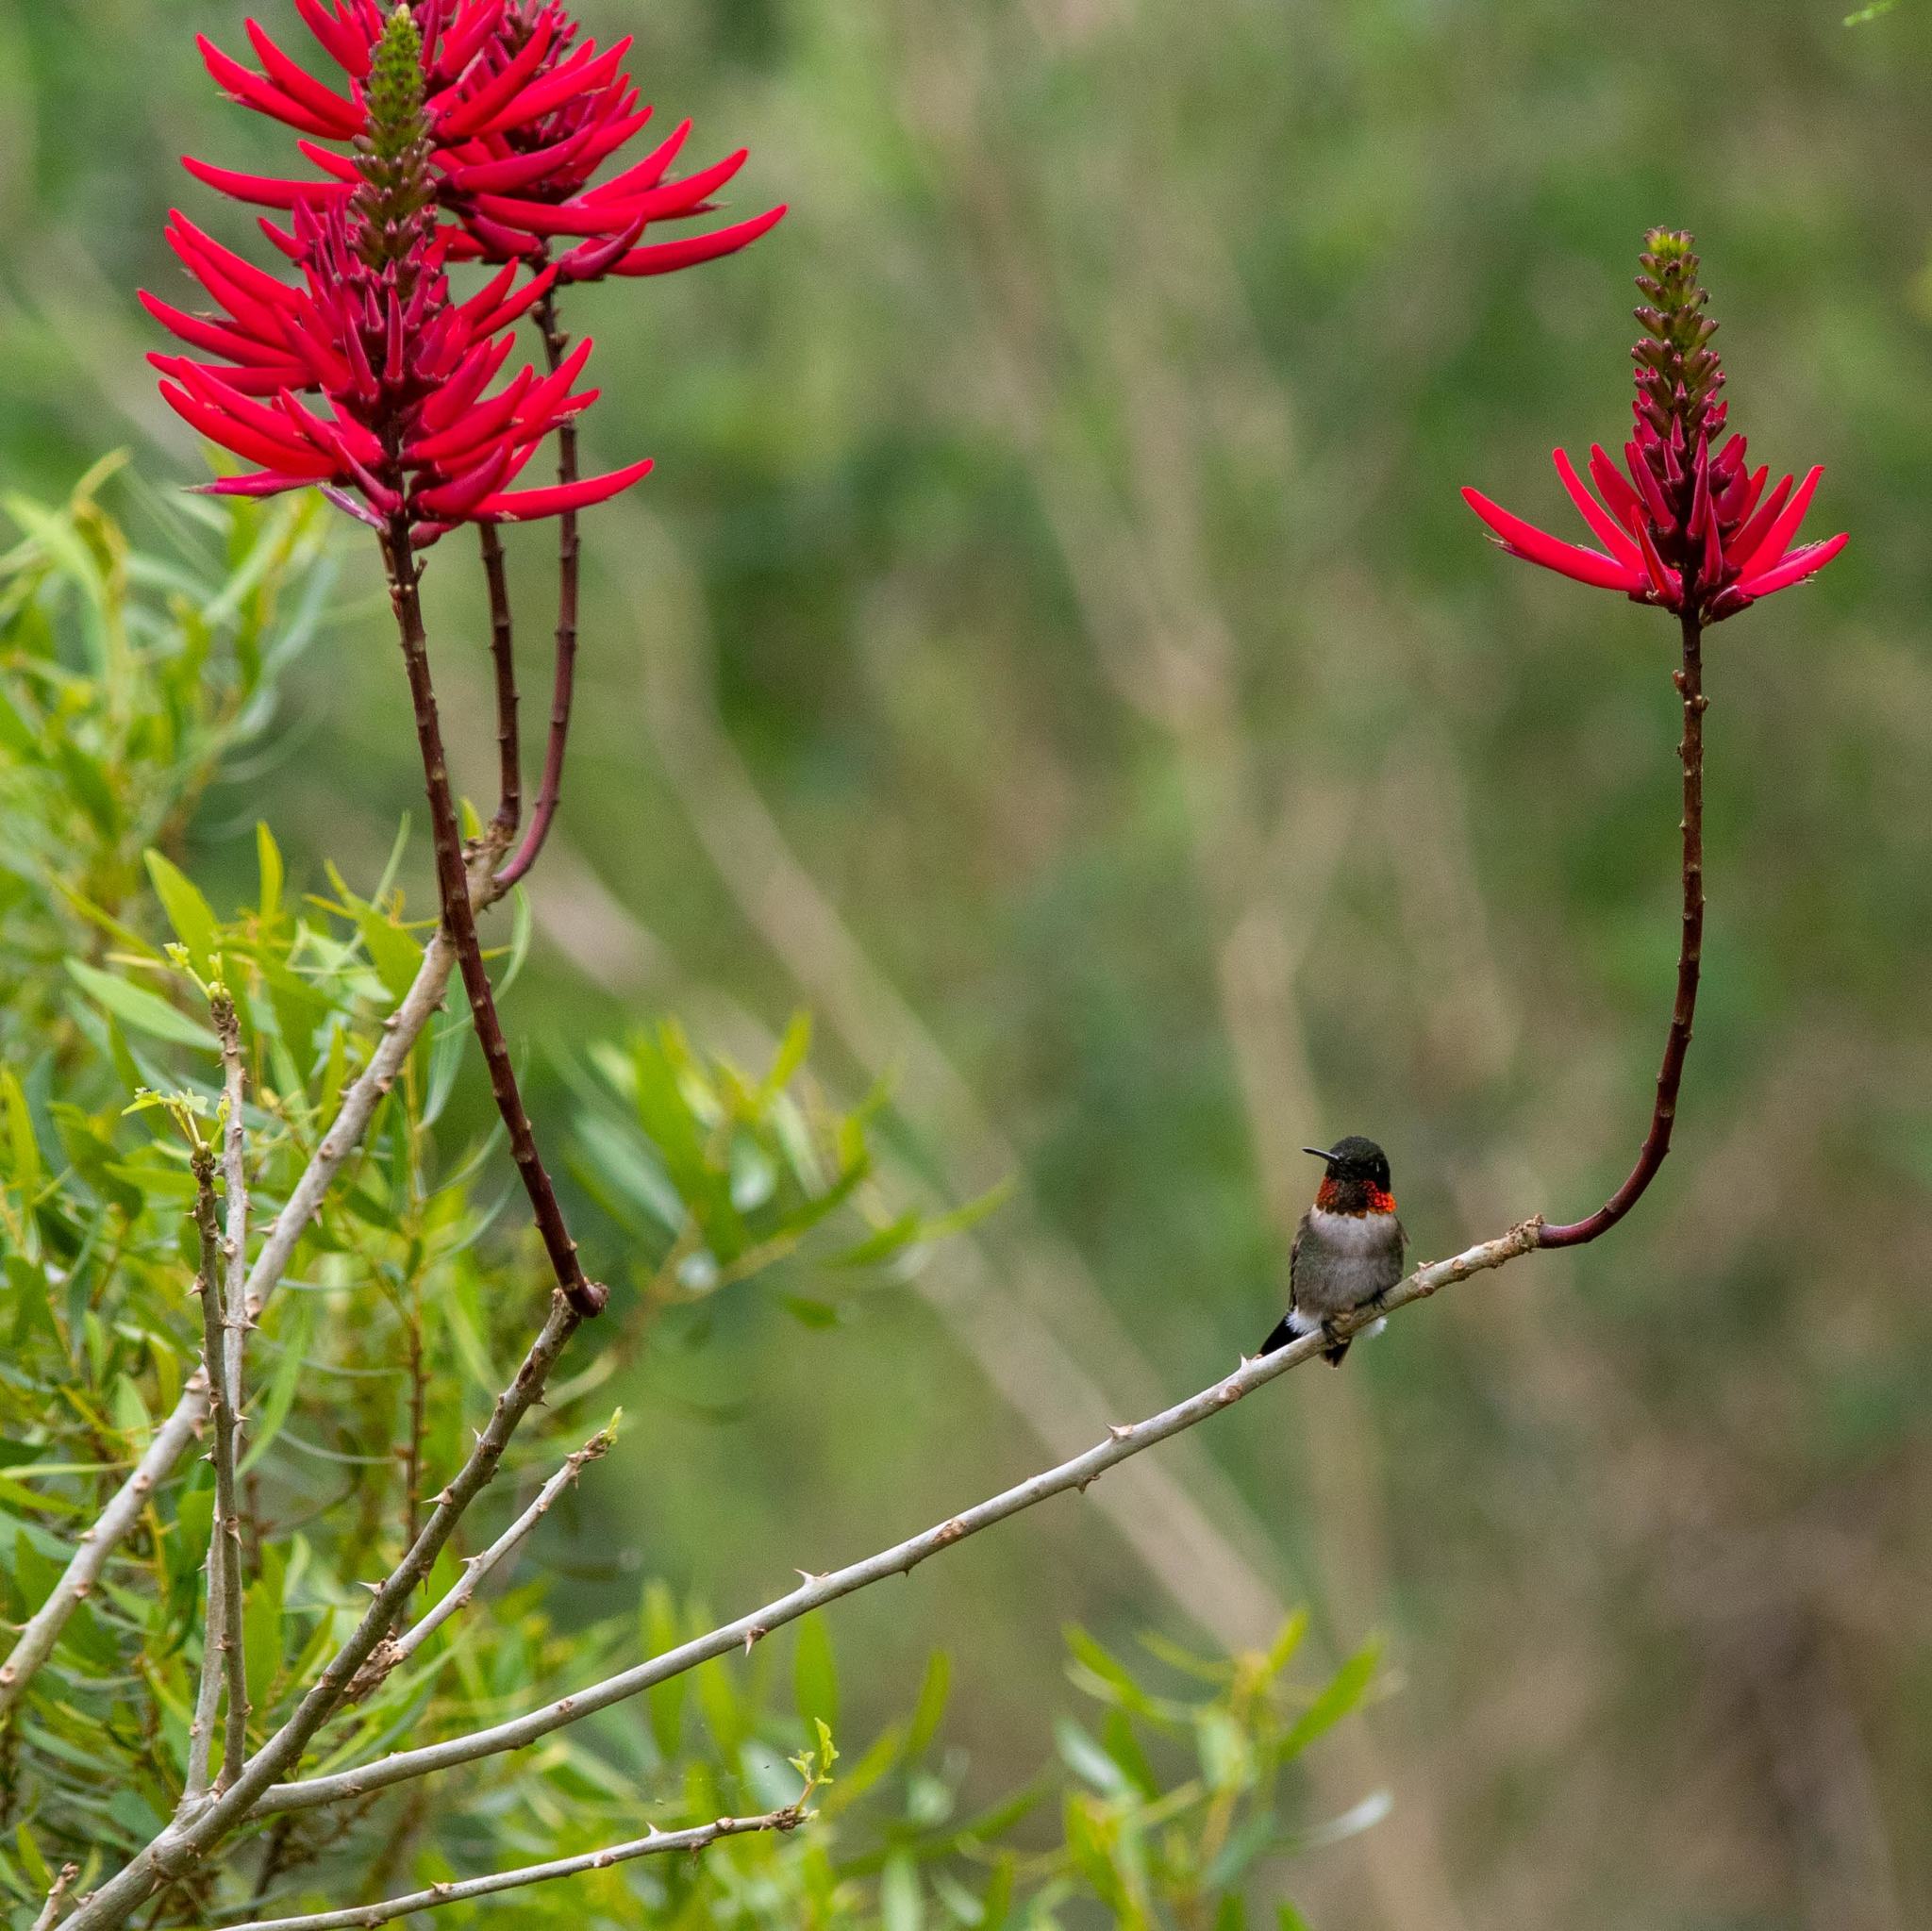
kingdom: Animalia
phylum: Chordata
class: Aves
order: Apodiformes
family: Trochilidae
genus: Archilochus
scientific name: Archilochus colubris
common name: Ruby-throated hummingbird
